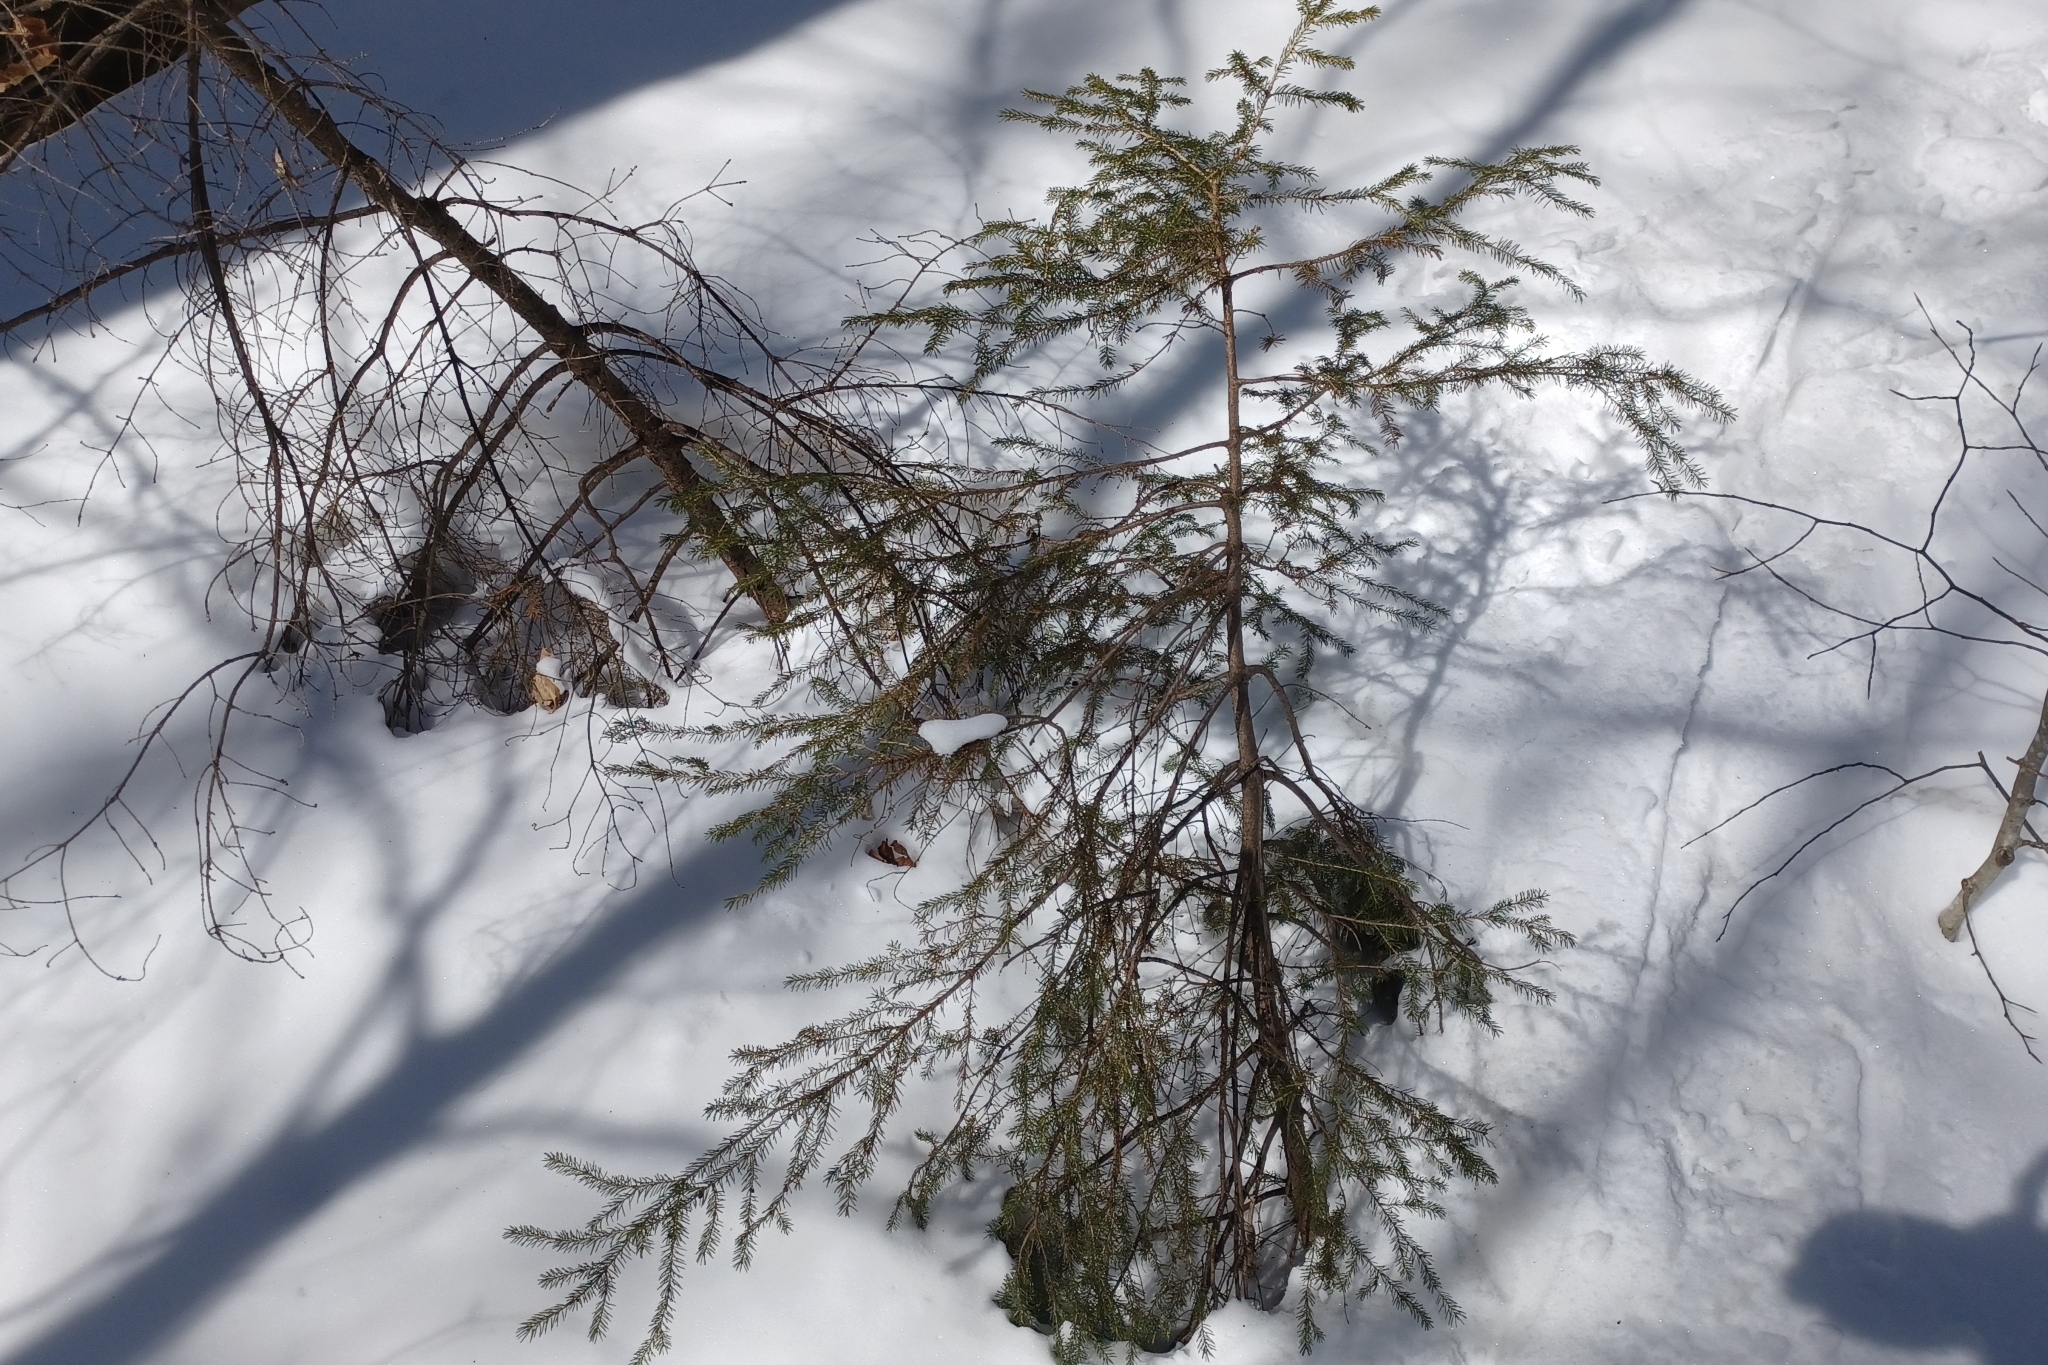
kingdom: Plantae
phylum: Tracheophyta
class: Pinopsida
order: Pinales
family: Pinaceae
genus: Picea
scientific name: Picea rubens
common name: Red spruce
